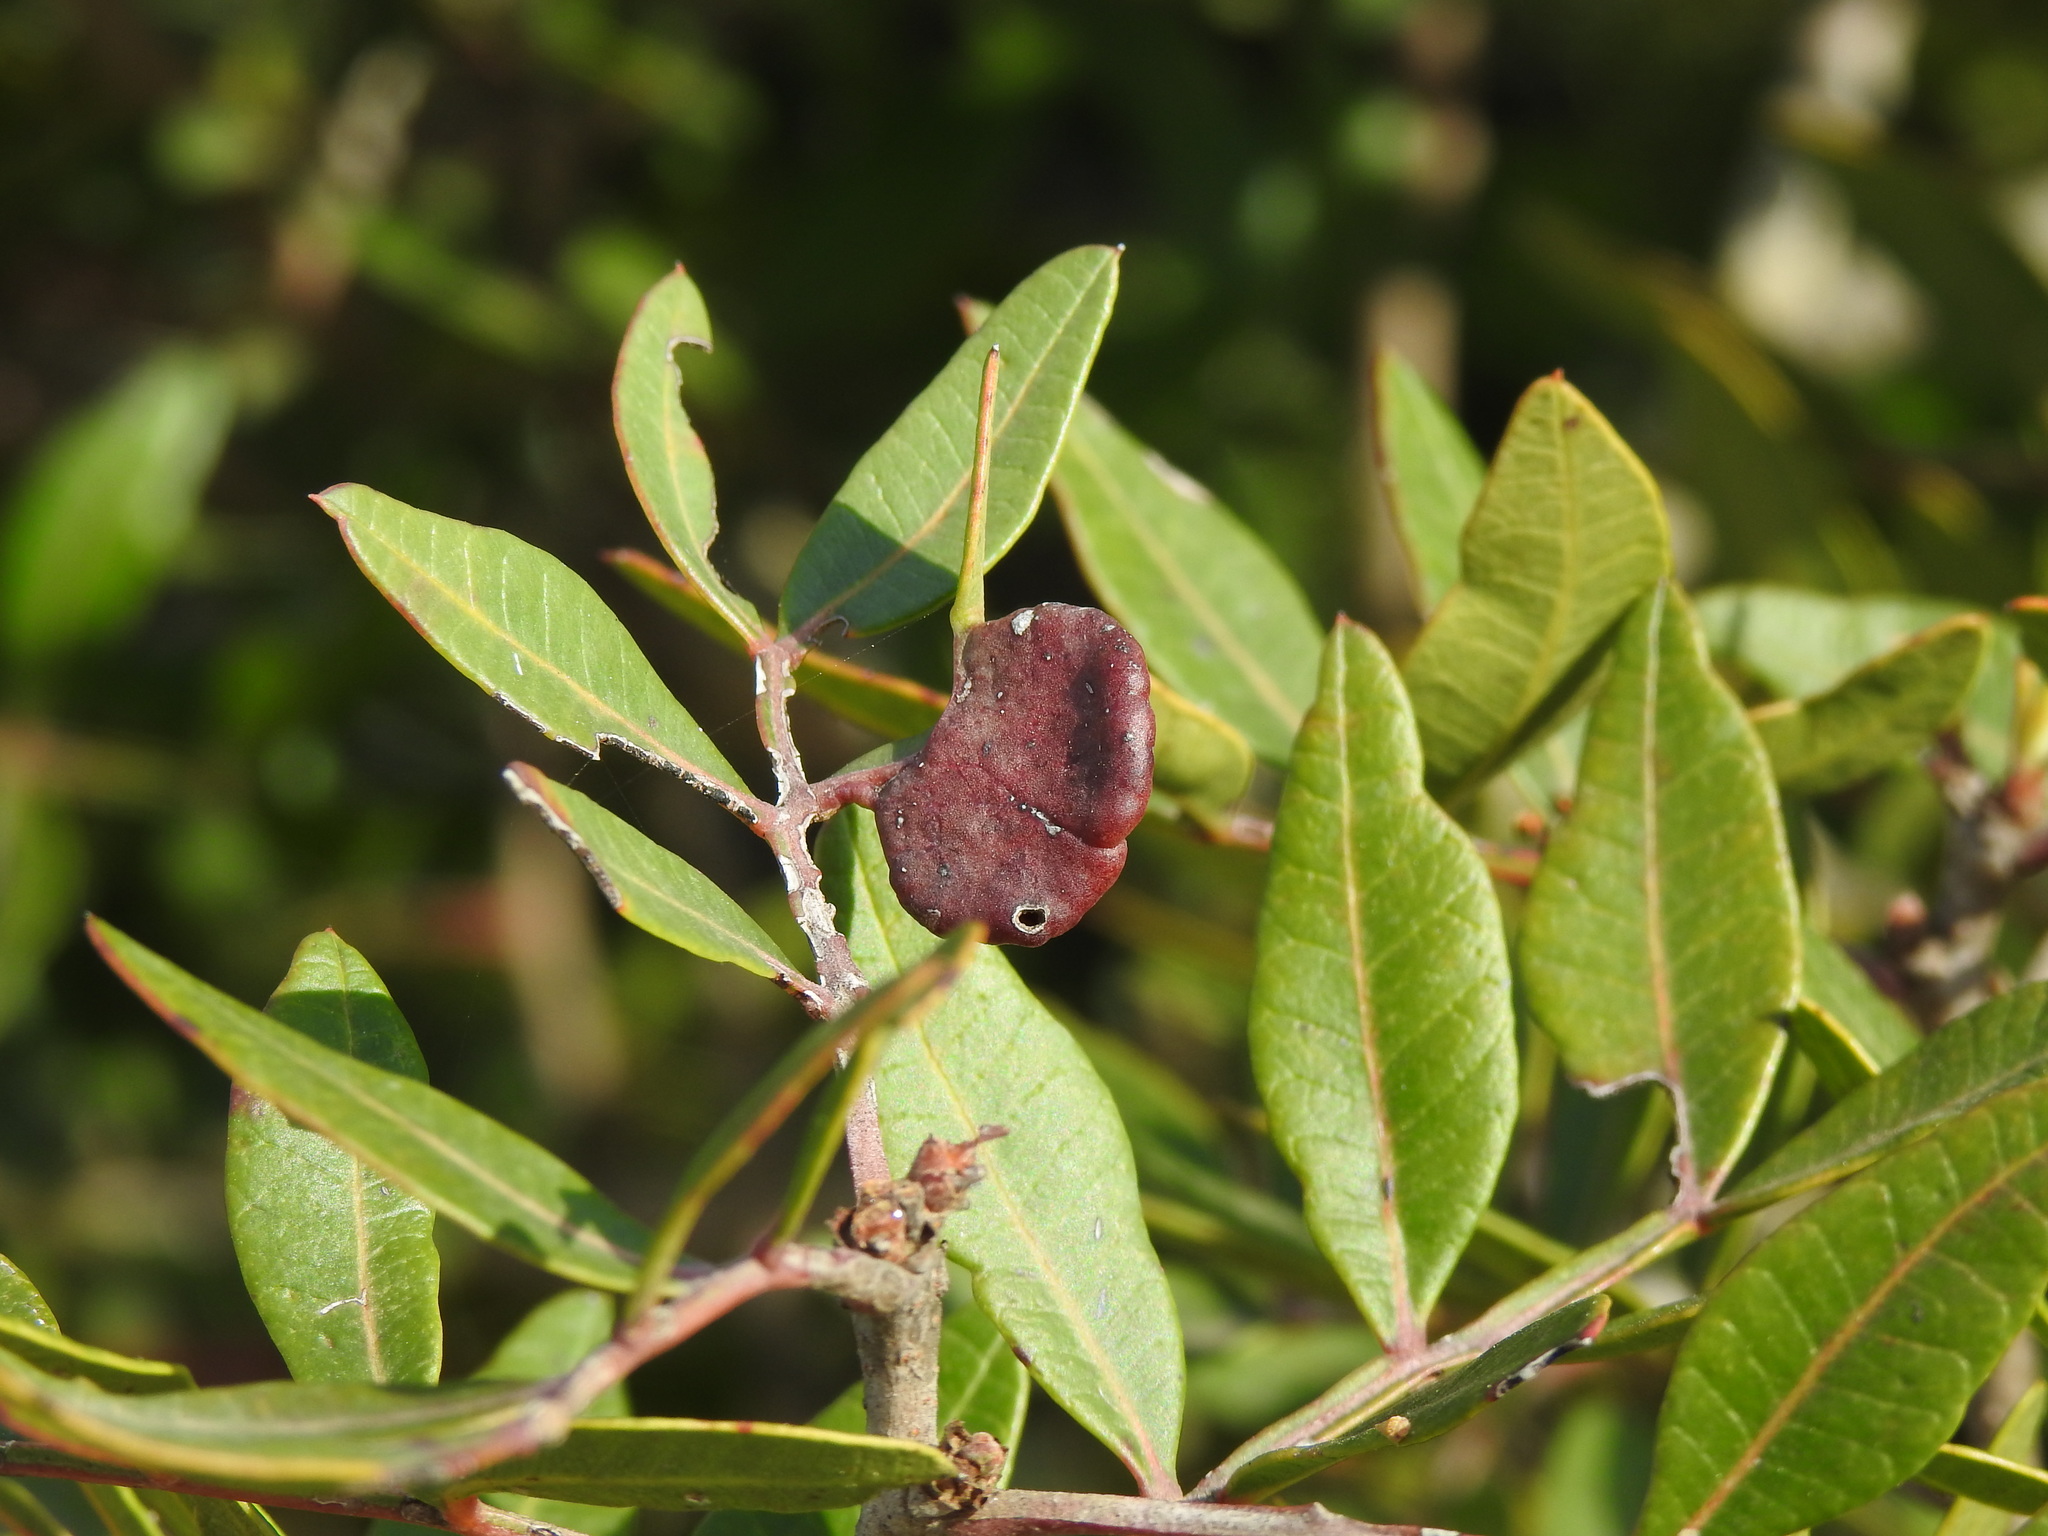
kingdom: Animalia
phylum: Arthropoda
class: Insecta
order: Hemiptera
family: Aphididae
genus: Aploneura
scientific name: Aploneura lentisci
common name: Mealy grass root aphid
